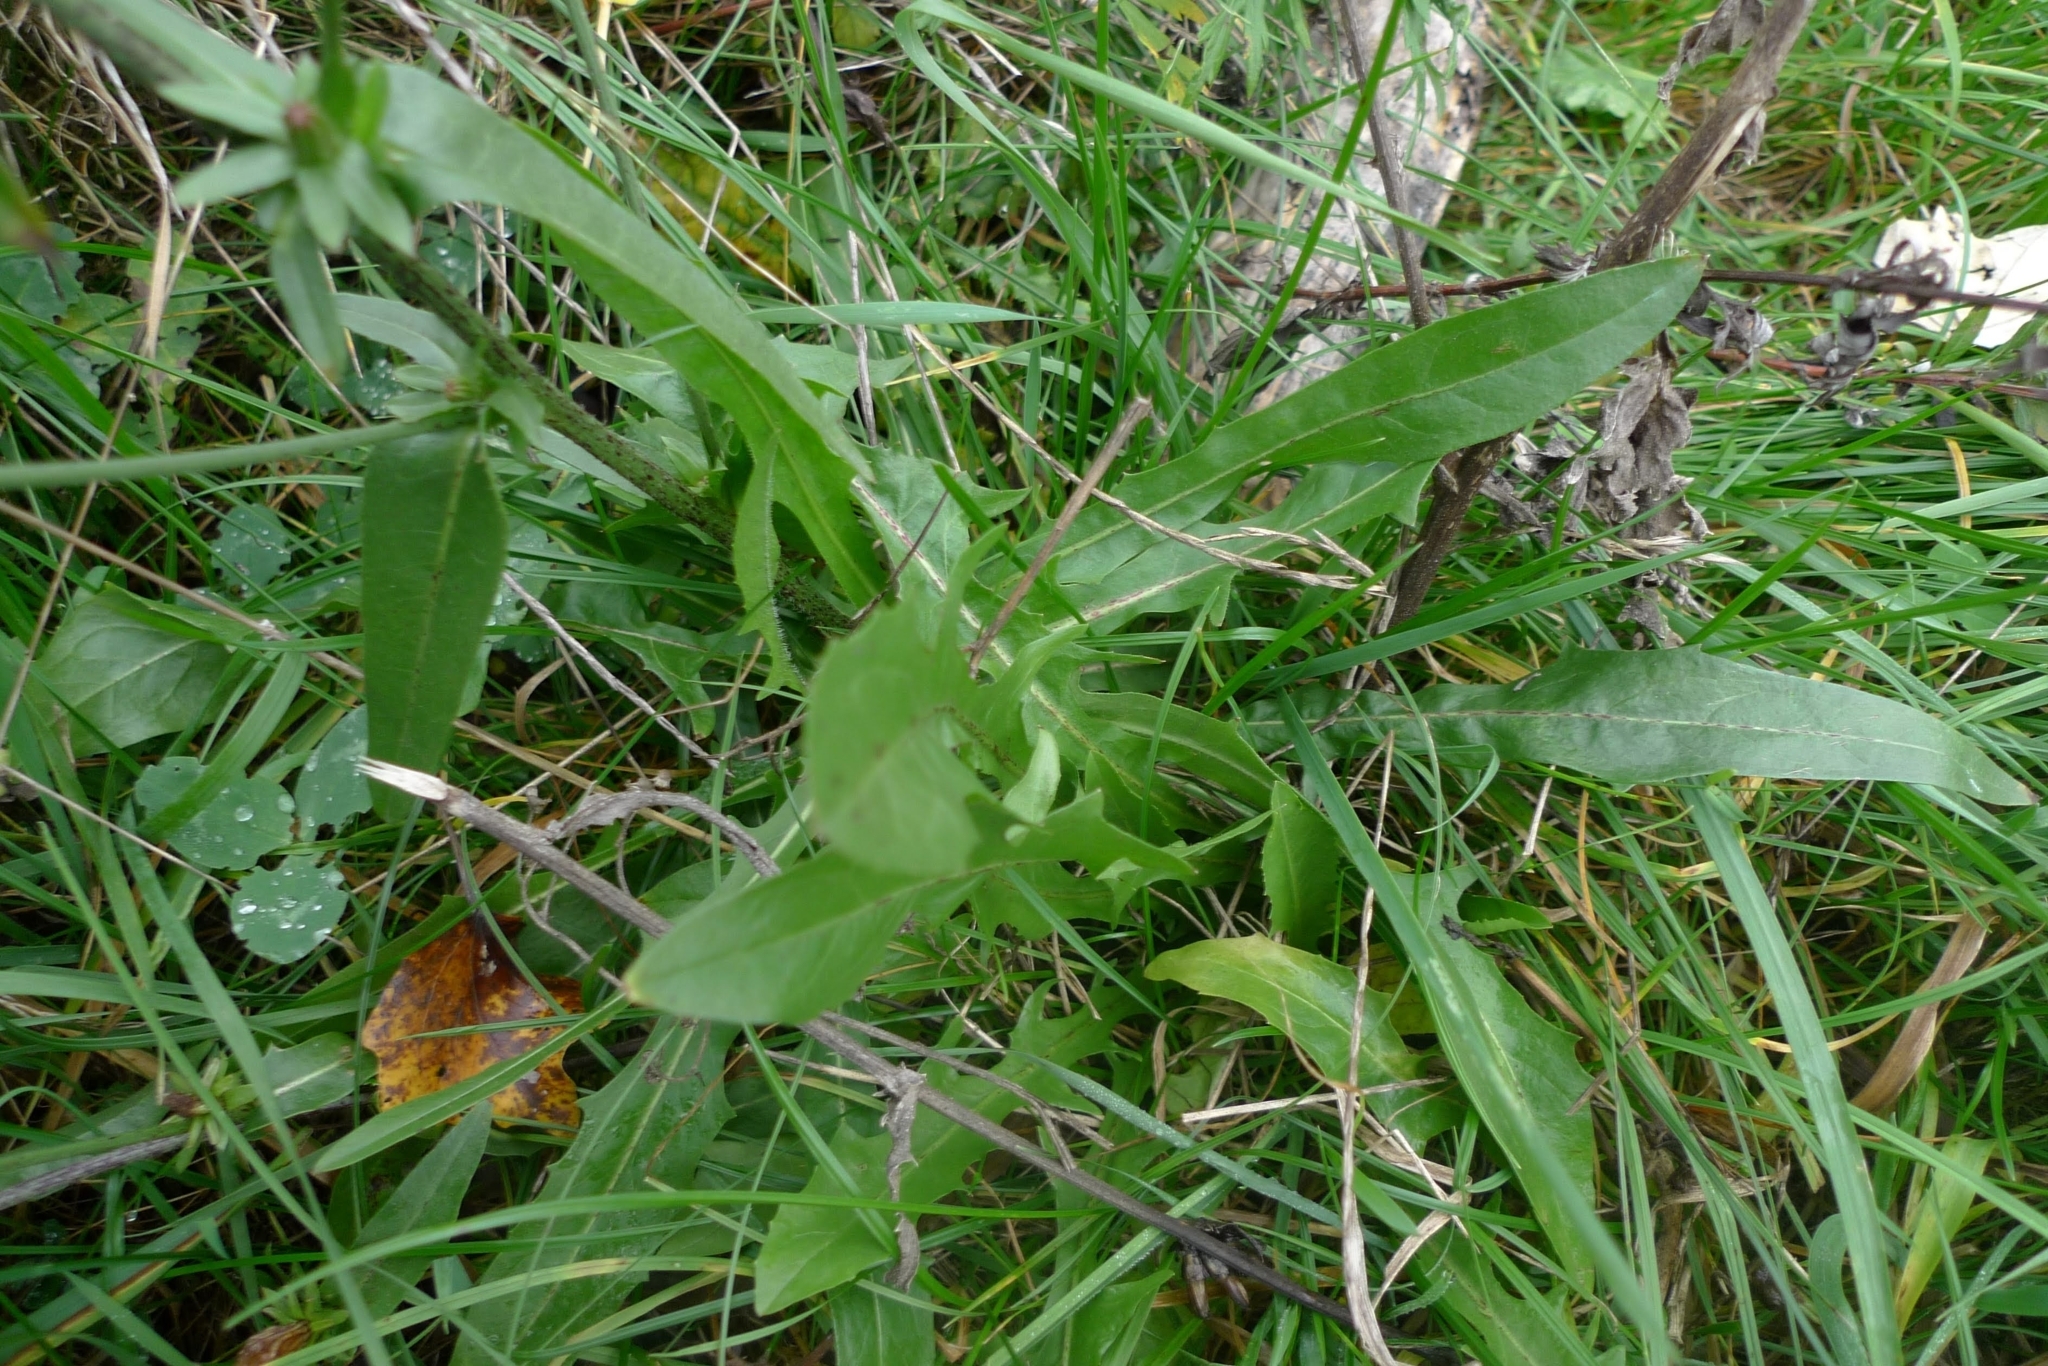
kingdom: Plantae
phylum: Tracheophyta
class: Magnoliopsida
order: Asterales
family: Asteraceae
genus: Cichorium
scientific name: Cichorium intybus
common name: Chicory
